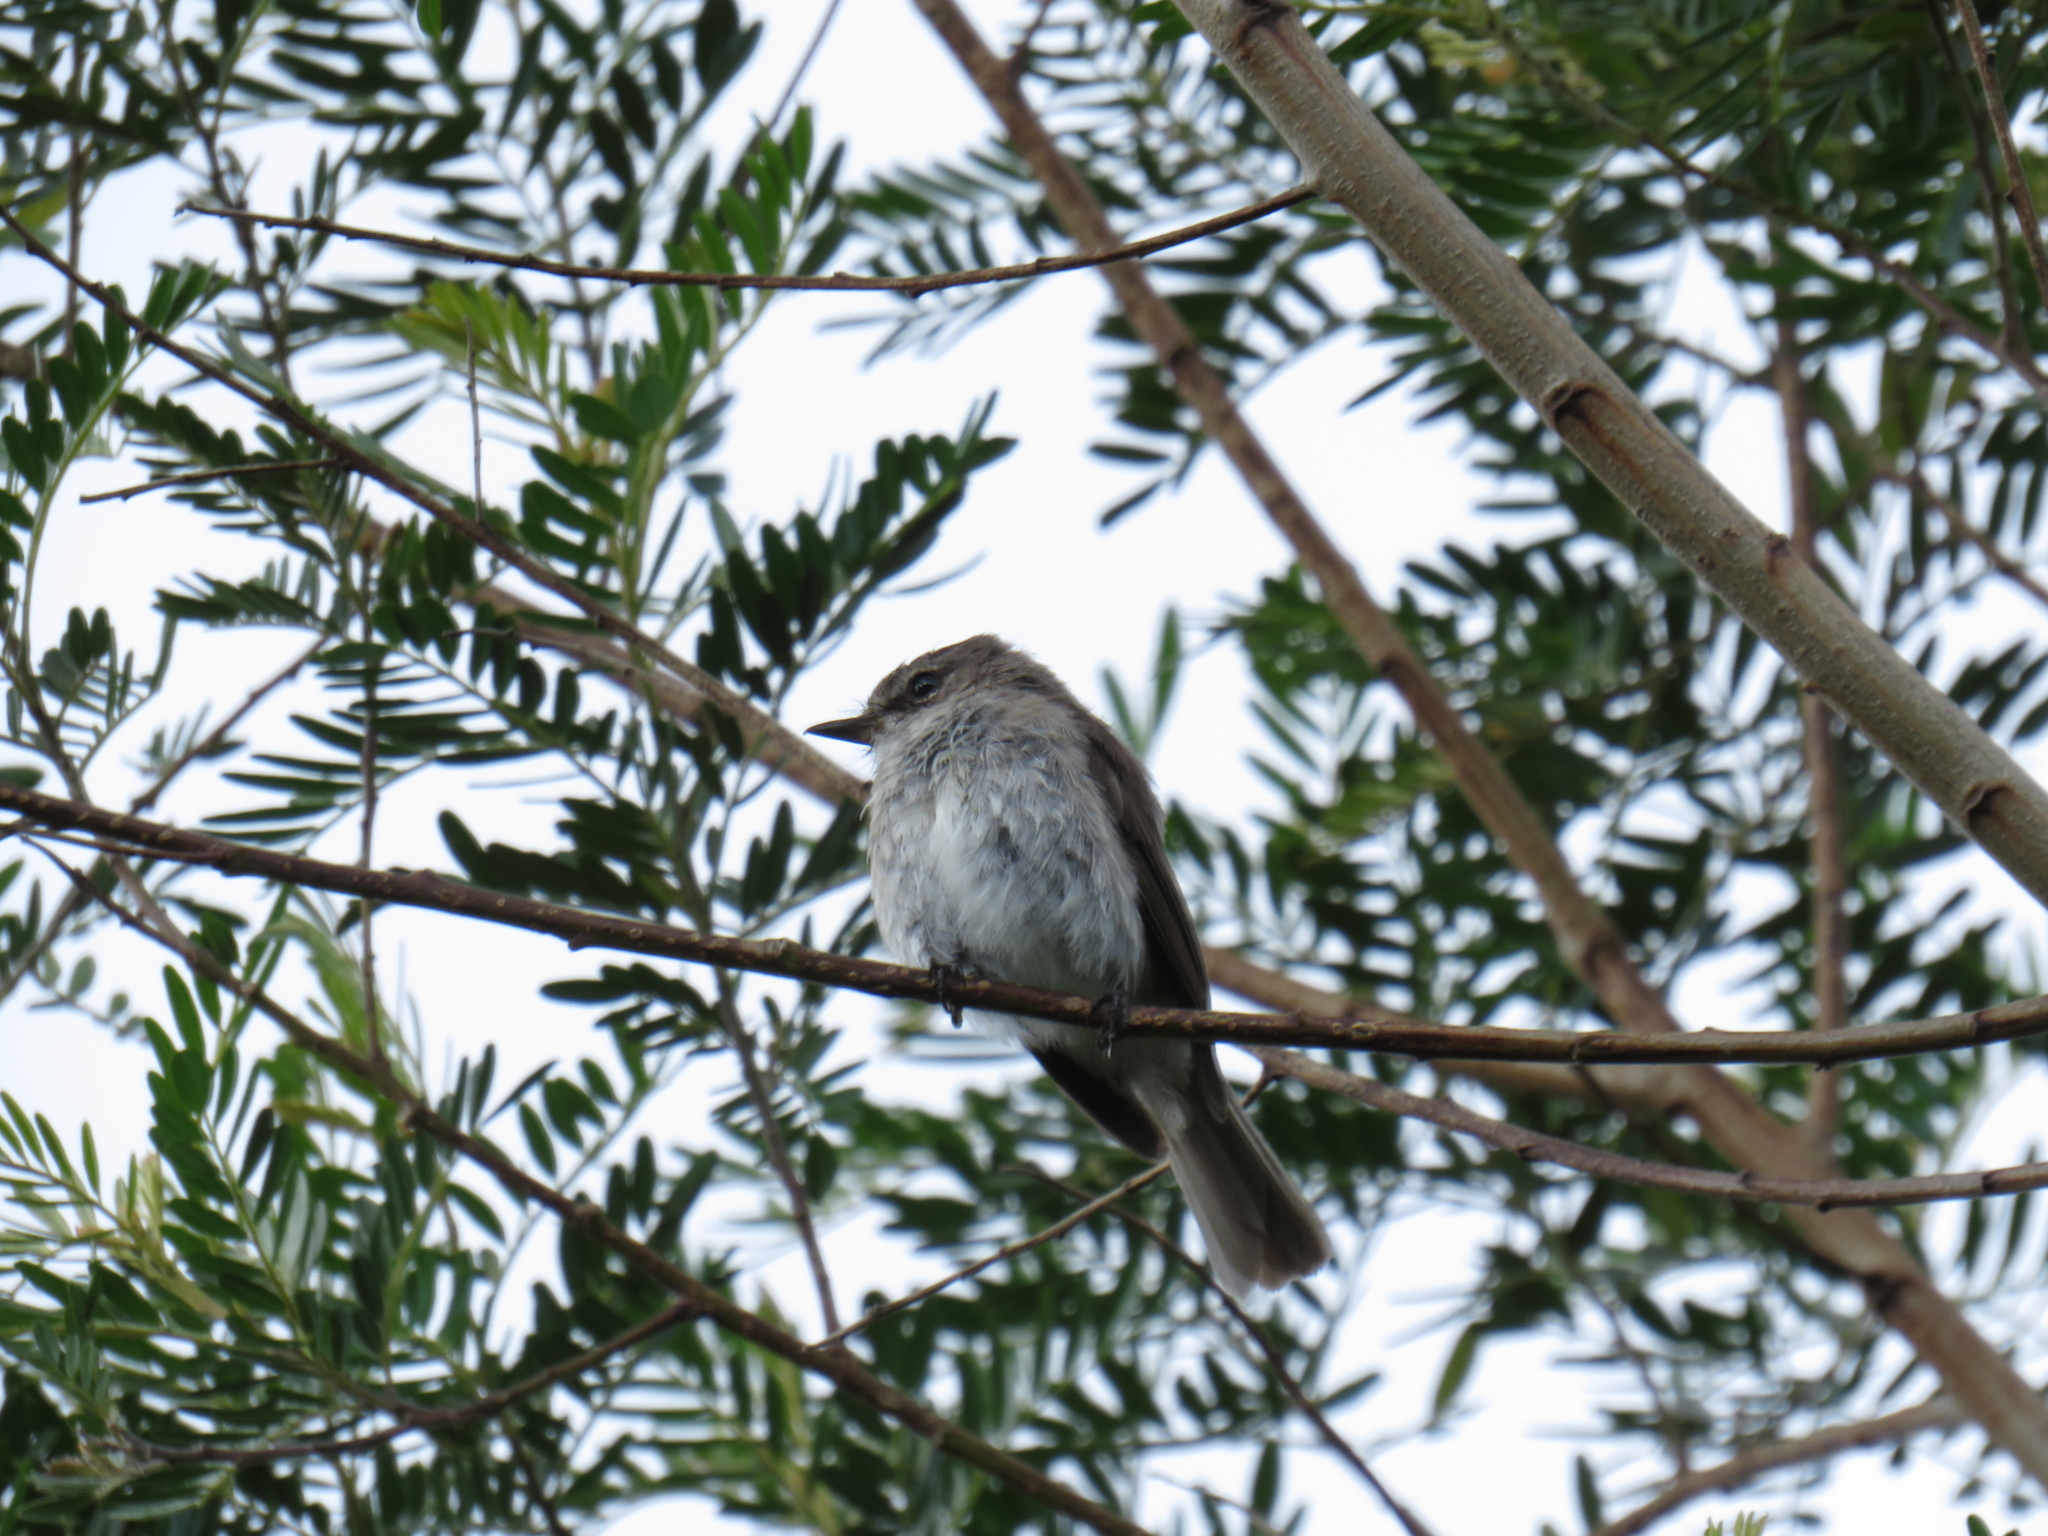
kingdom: Animalia
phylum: Chordata
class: Aves
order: Passeriformes
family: Muscicapidae
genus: Muscicapa
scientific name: Muscicapa adusta
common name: African dusky flycatcher
